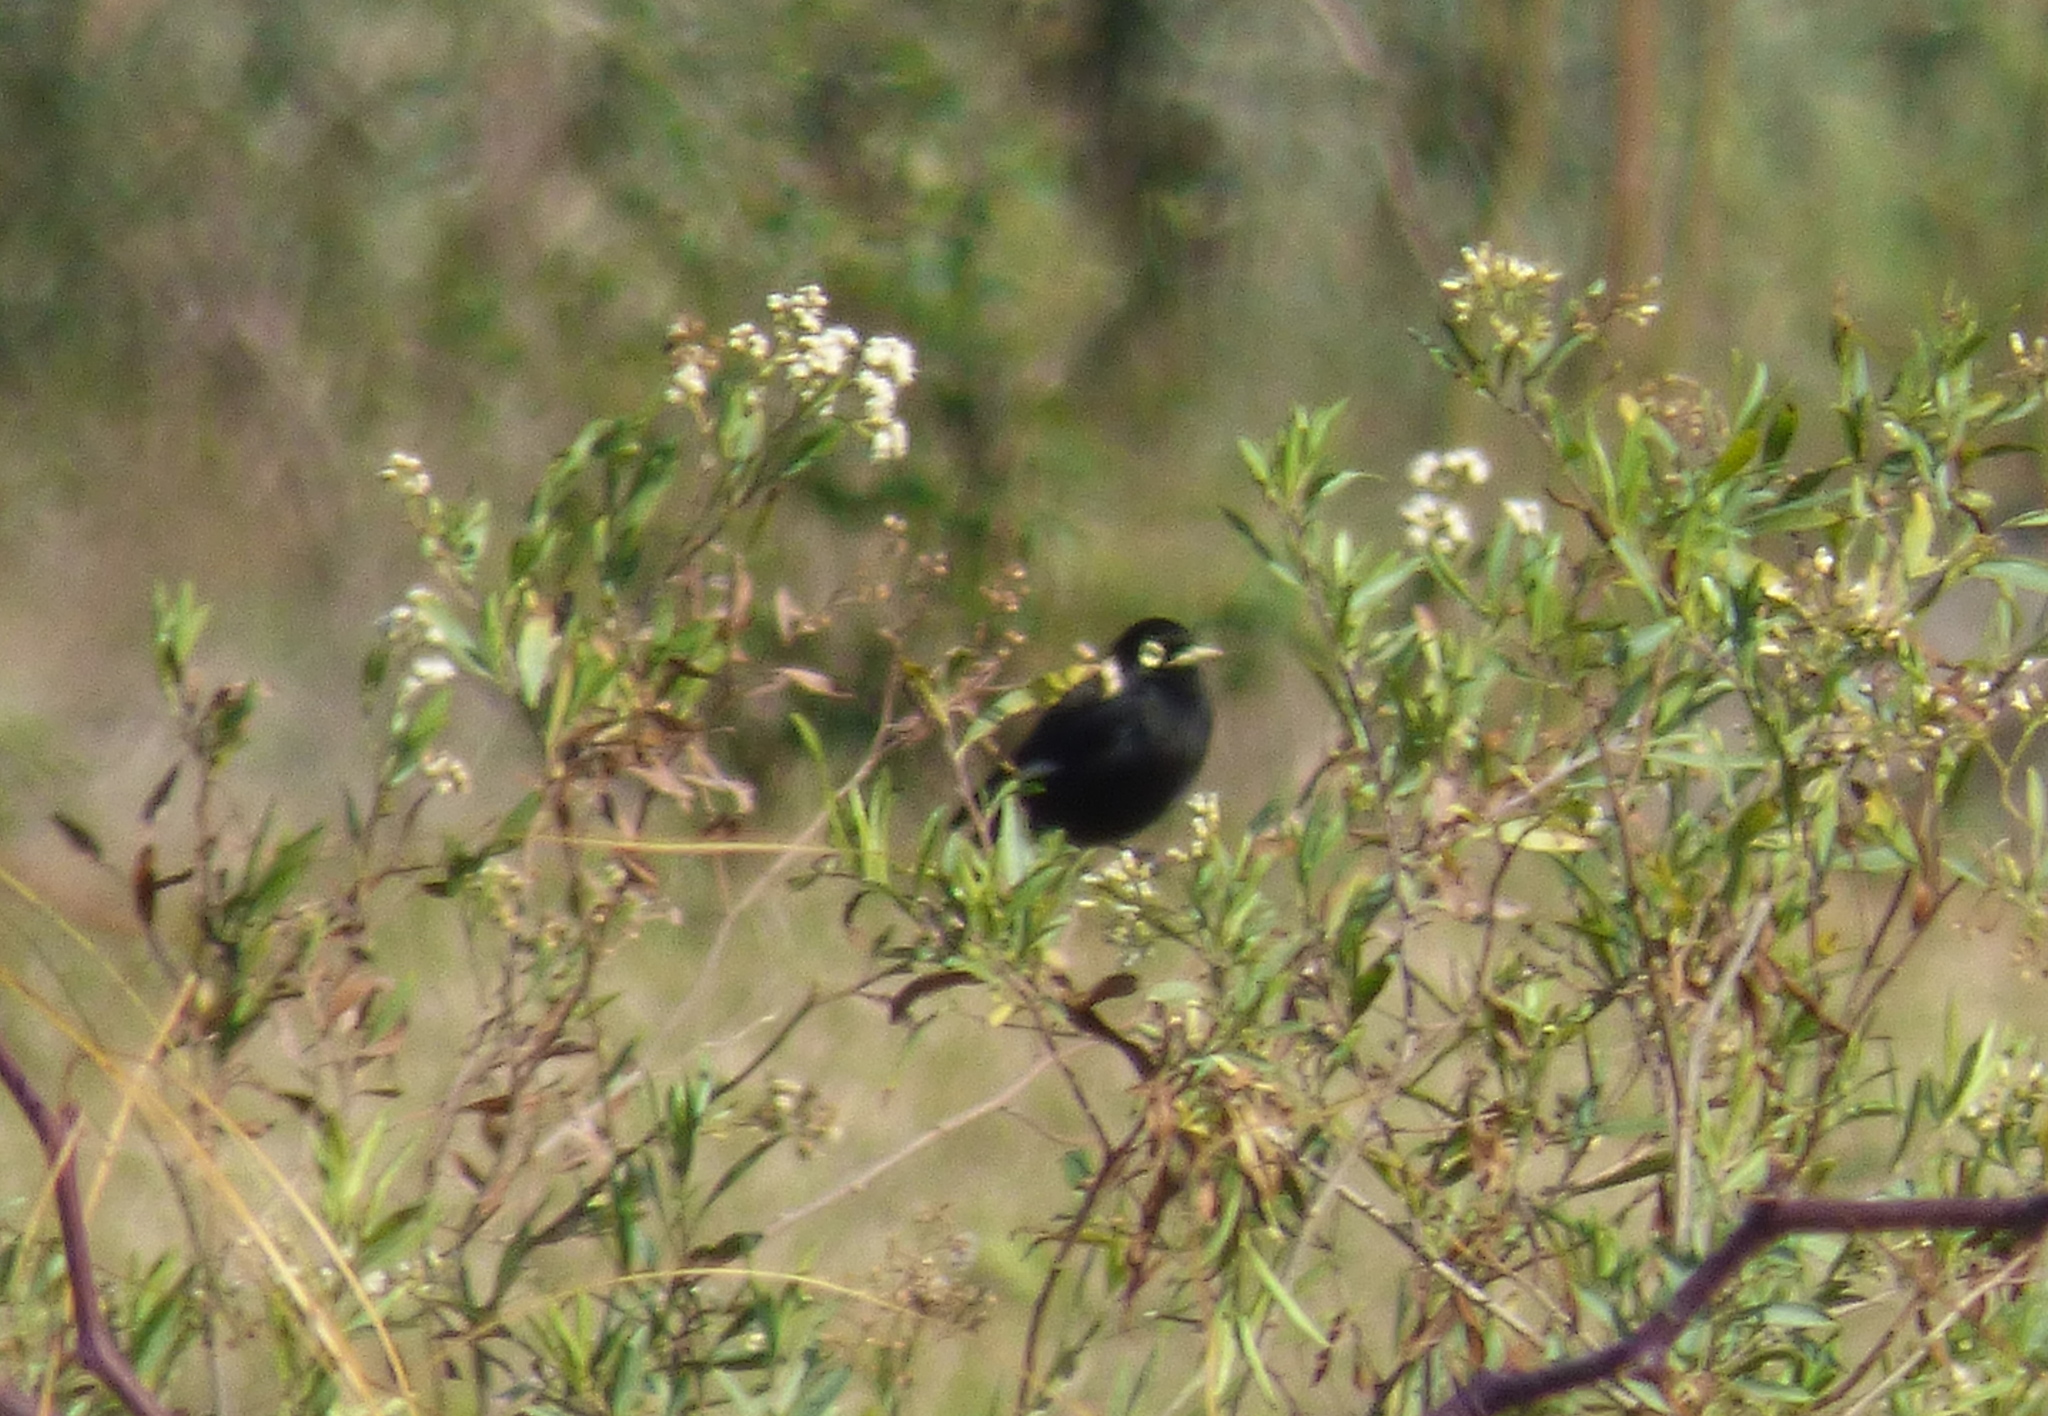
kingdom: Animalia
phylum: Chordata
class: Aves
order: Passeriformes
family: Tyrannidae
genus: Hymenops
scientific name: Hymenops perspicillatus
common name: Spectacled tyrant
